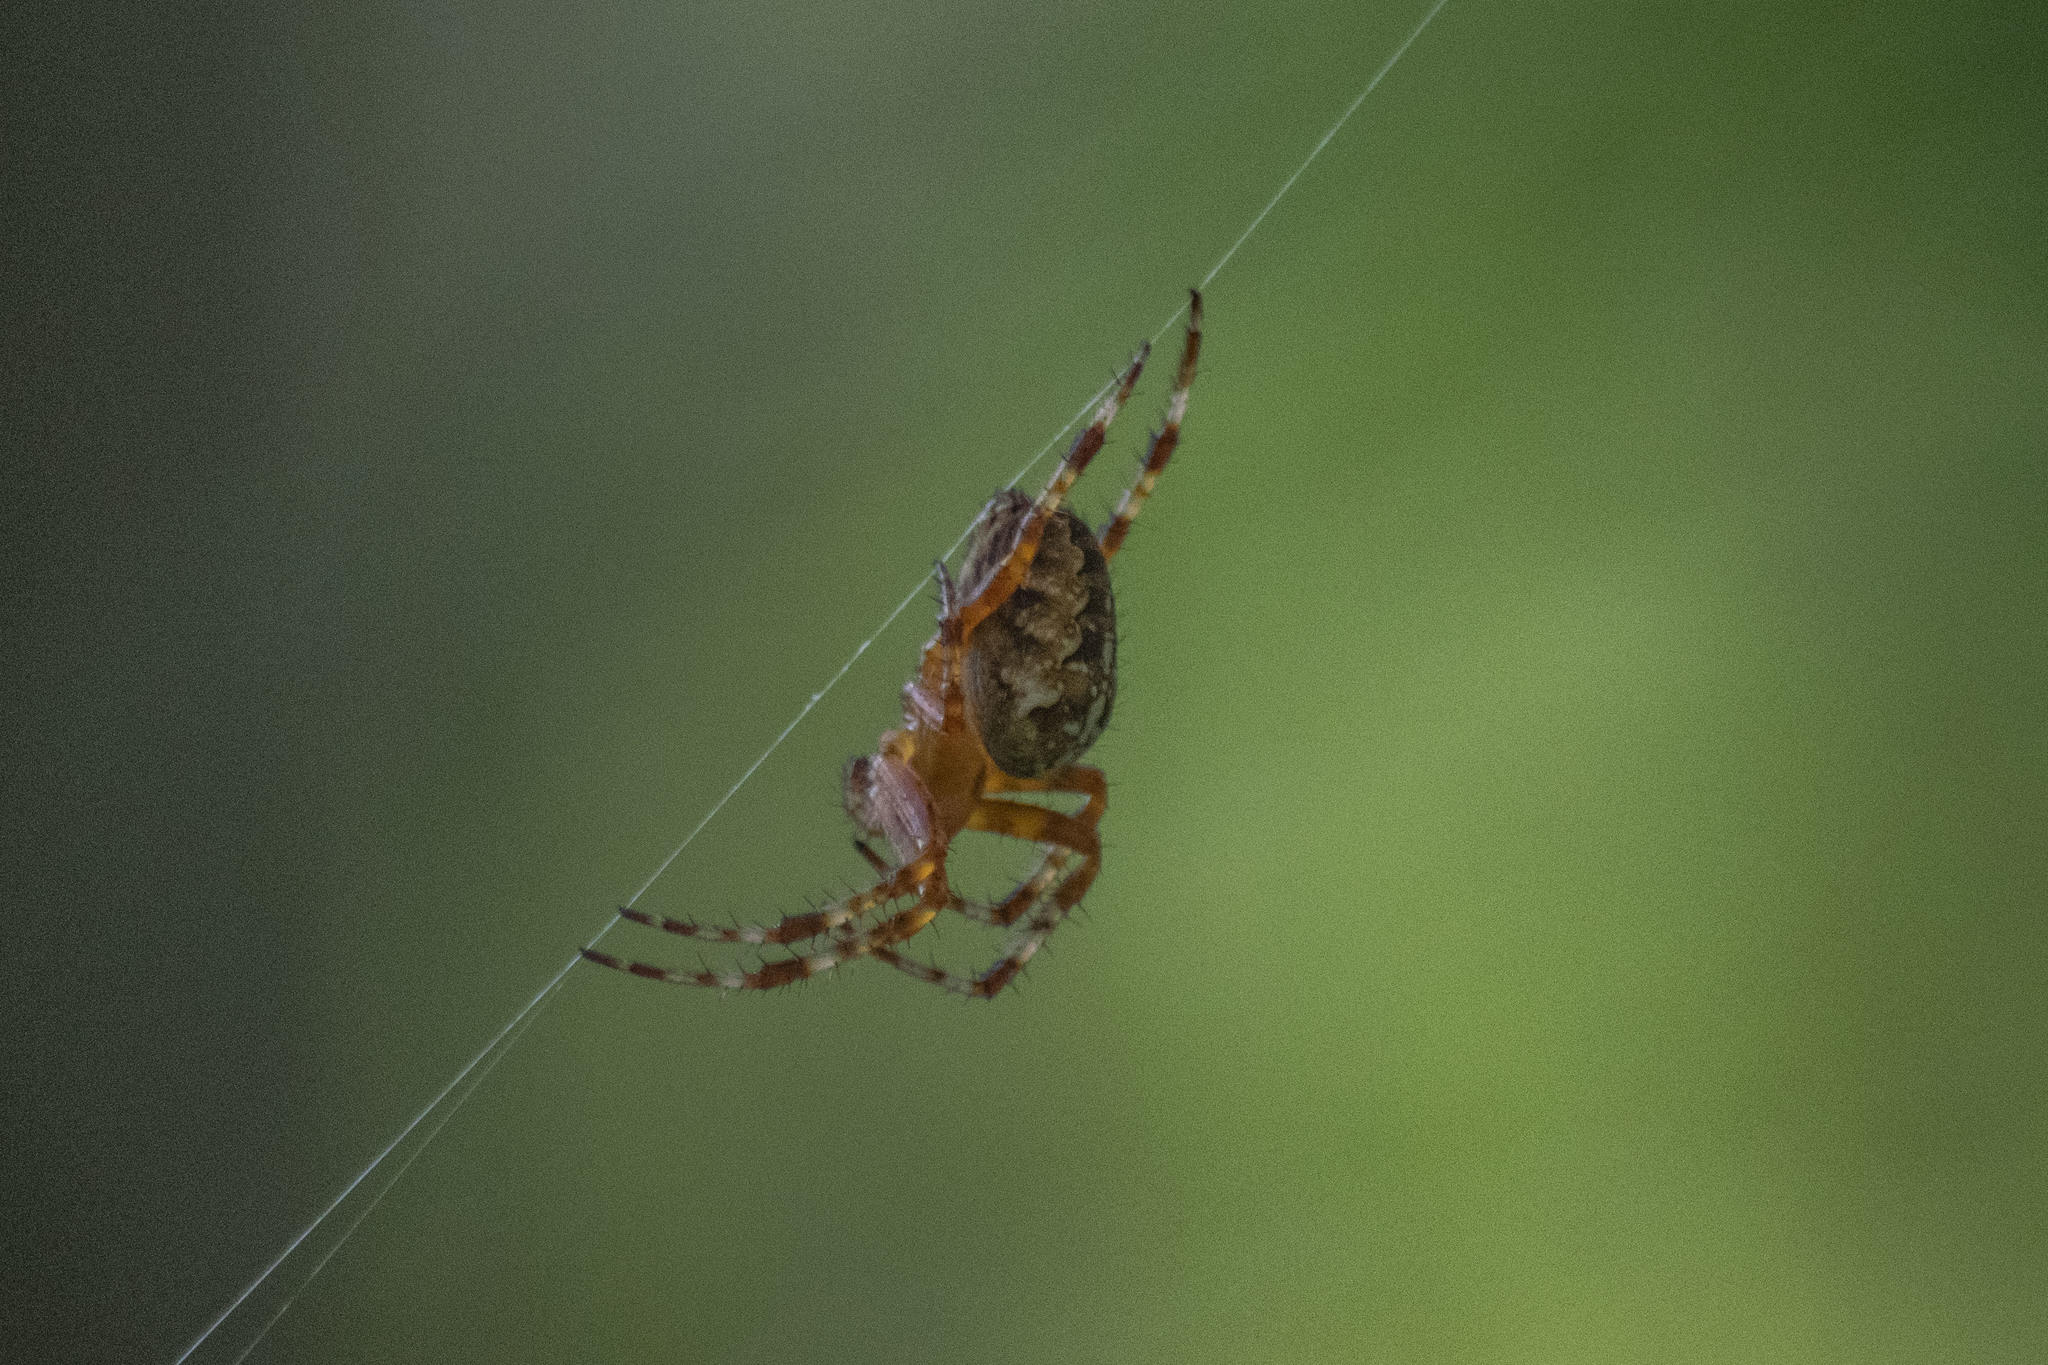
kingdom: Animalia
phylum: Arthropoda
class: Arachnida
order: Araneae
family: Araneidae
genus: Araneus
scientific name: Araneus diadematus
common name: Cross orbweaver
